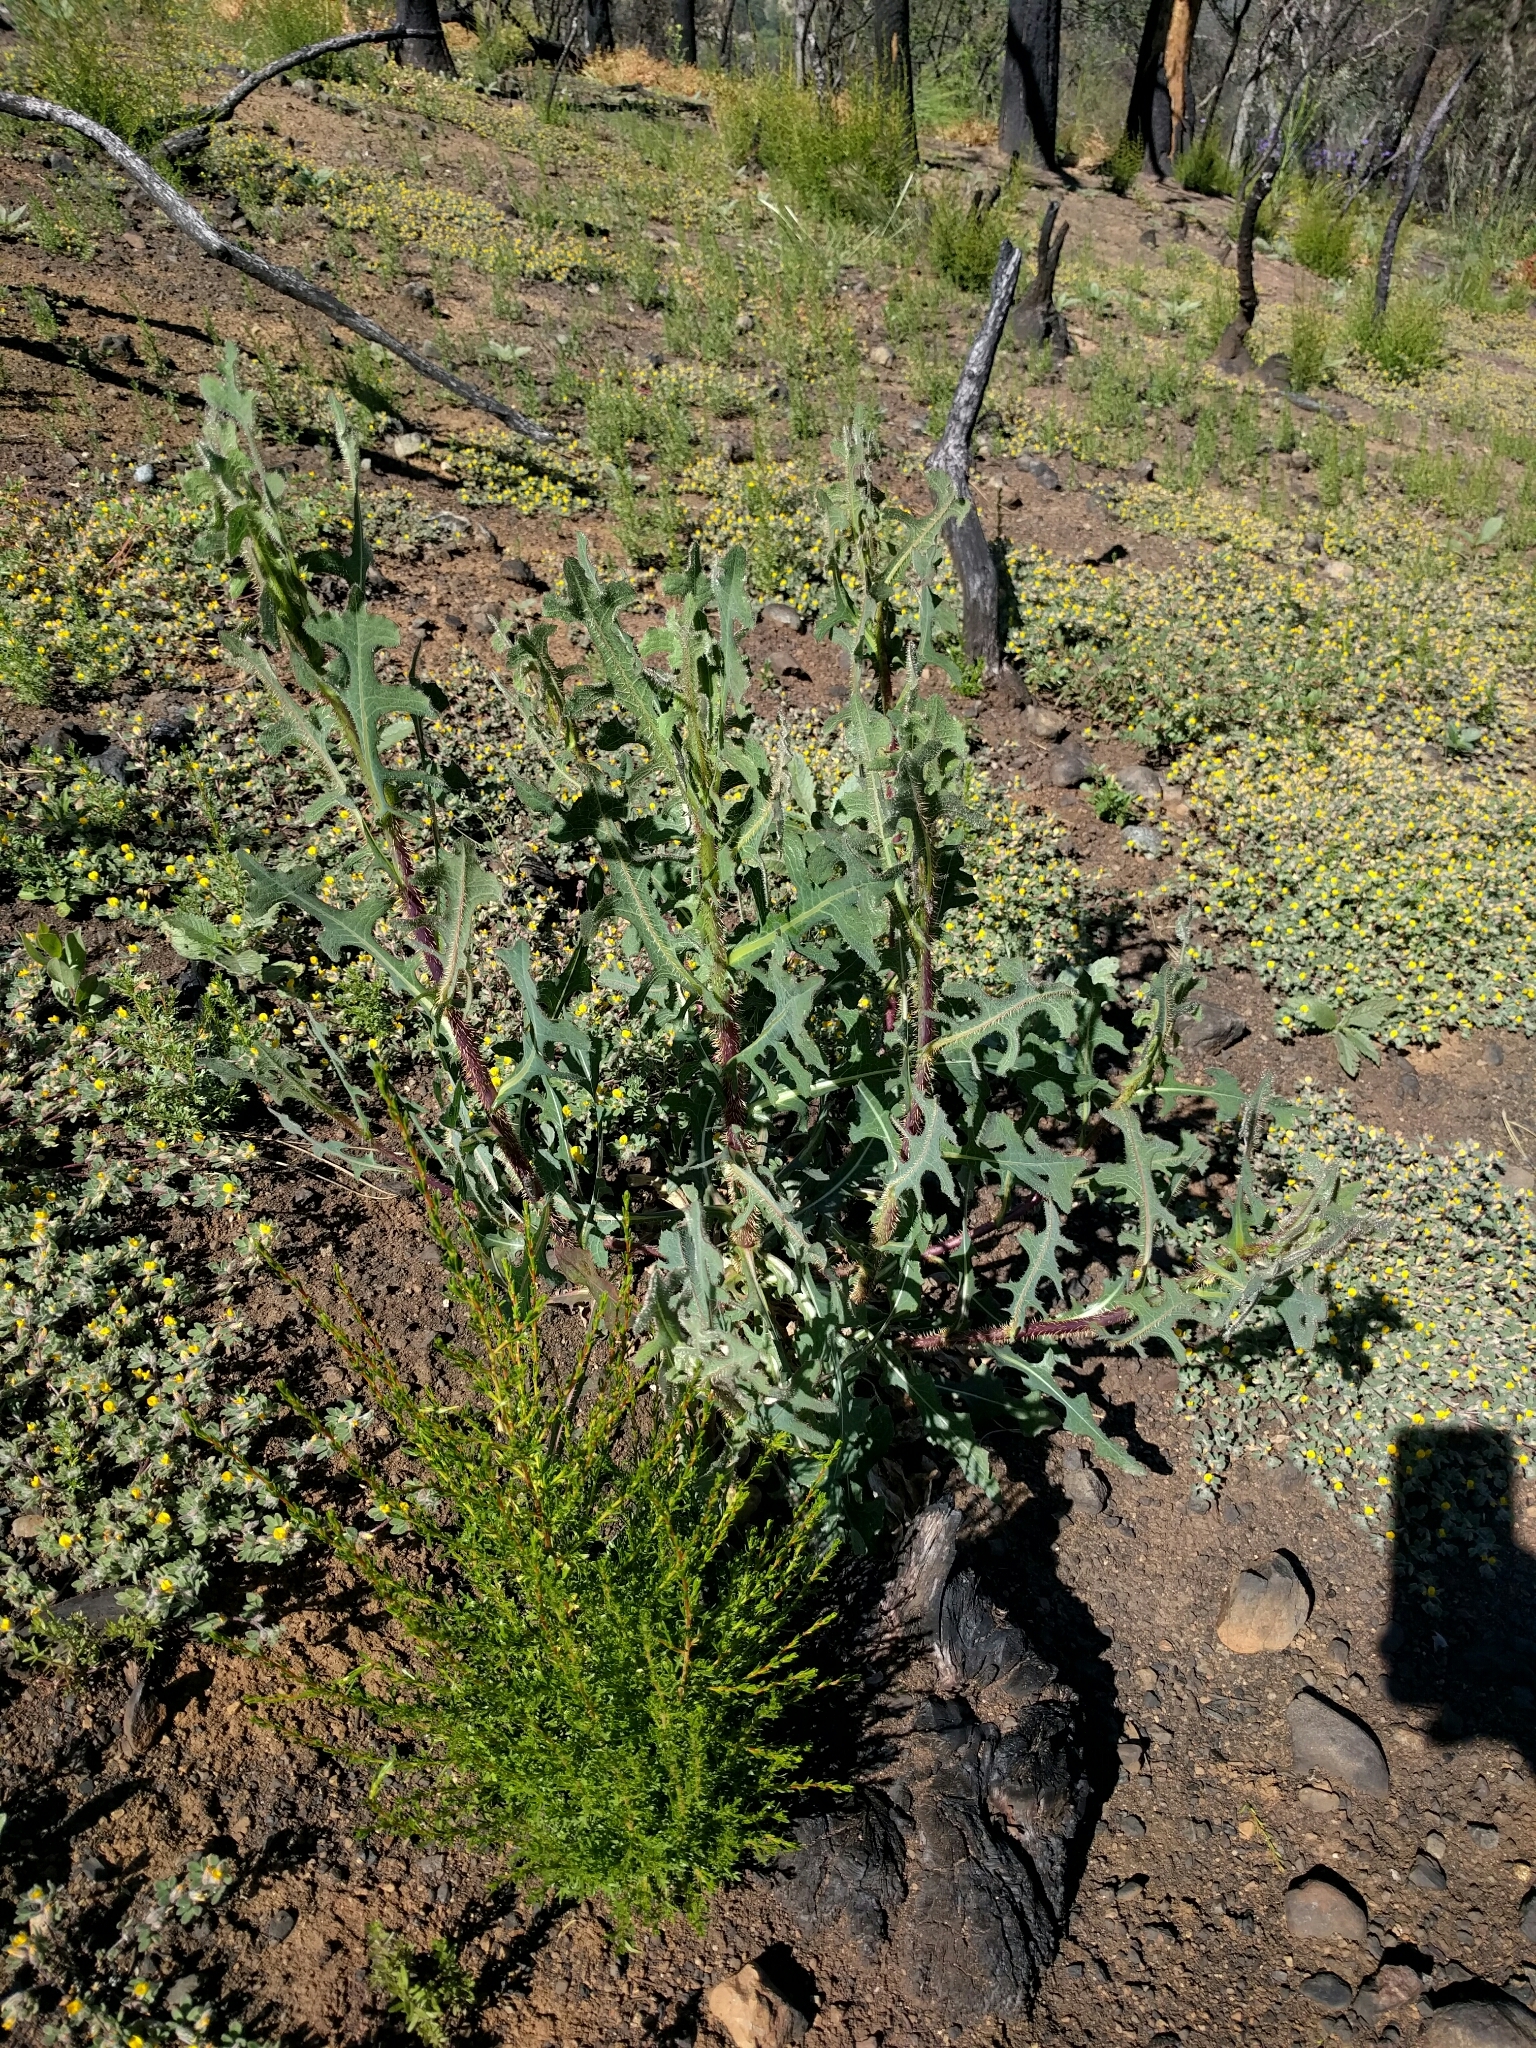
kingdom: Plantae
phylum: Tracheophyta
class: Magnoliopsida
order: Asterales
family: Asteraceae
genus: Lactuca
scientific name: Lactuca serriola
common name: Prickly lettuce
